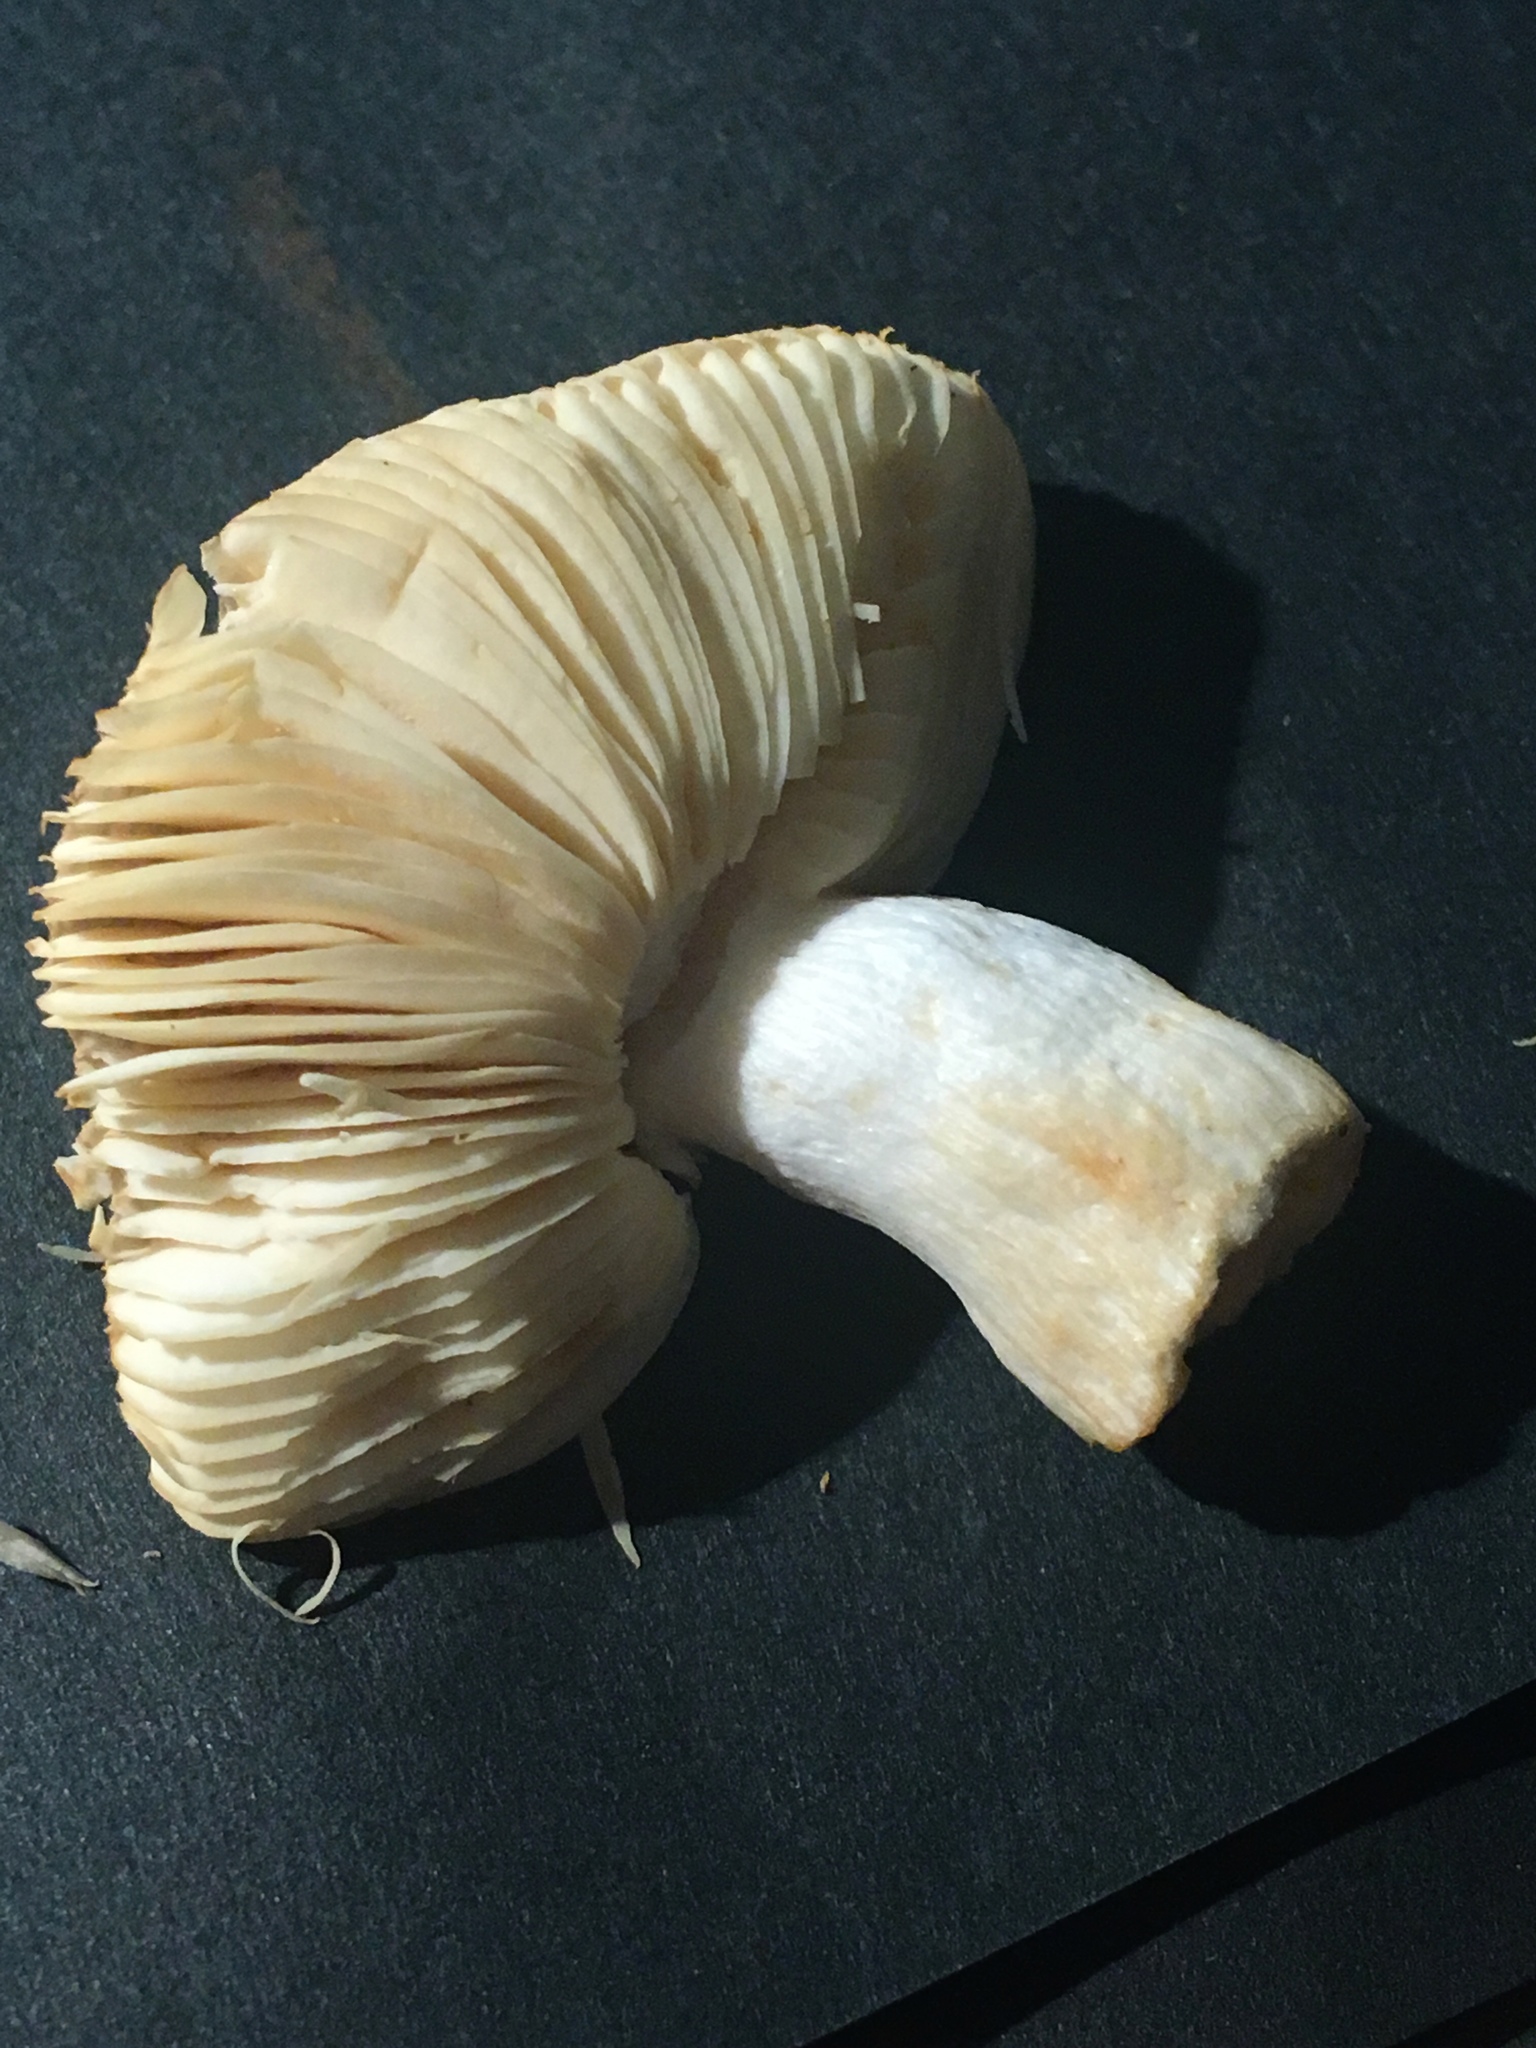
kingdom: Fungi
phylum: Basidiomycota
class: Agaricomycetes
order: Russulales
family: Russulaceae
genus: Russula
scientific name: Russula puellaris
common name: Yellowing brittlegill
